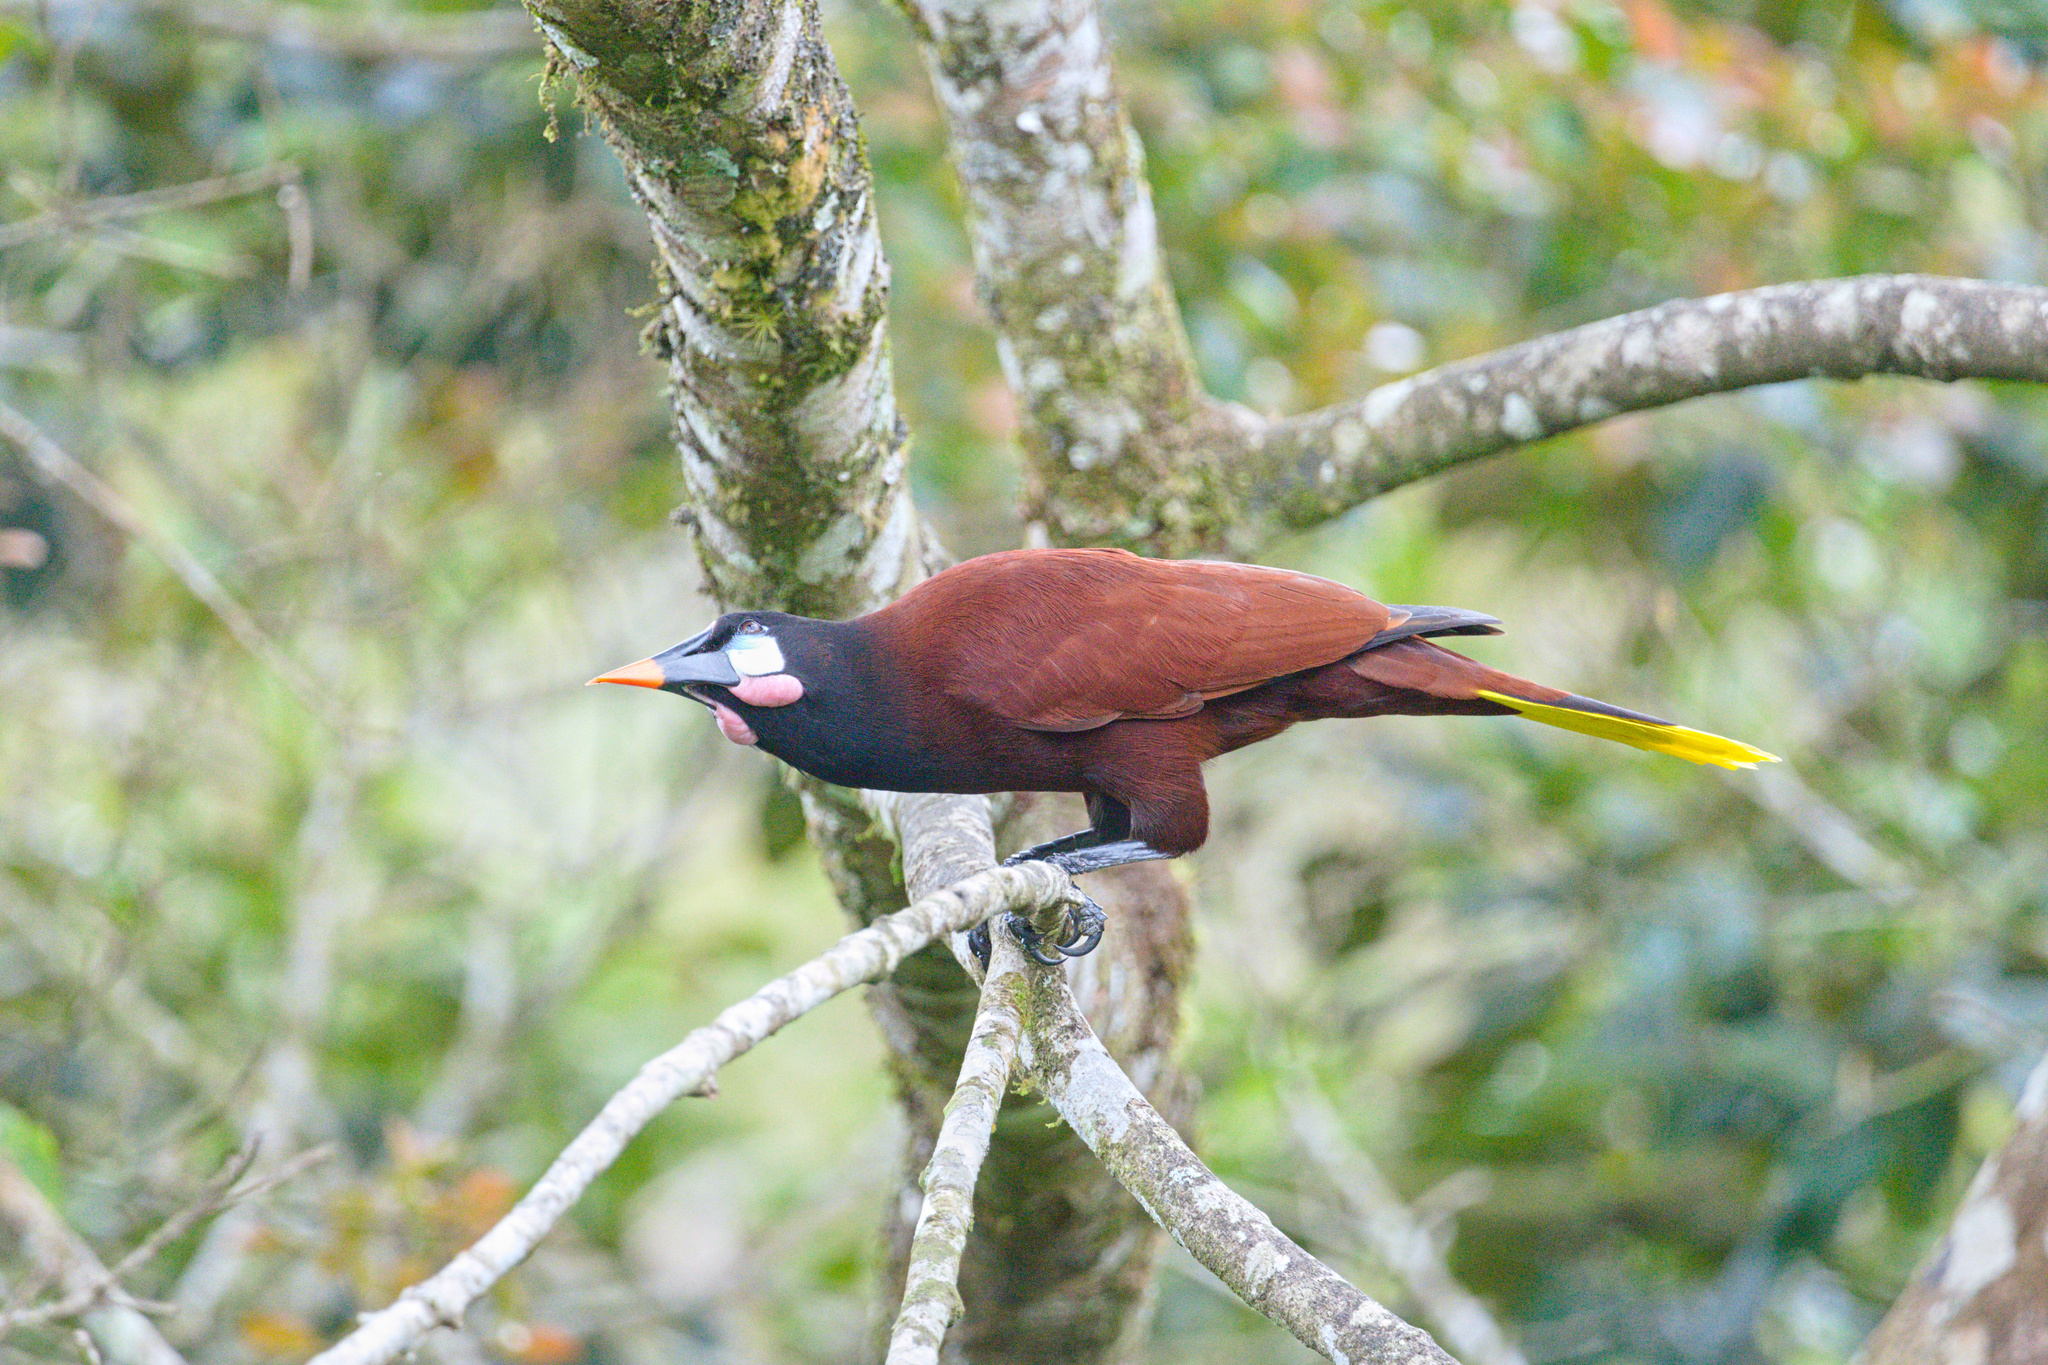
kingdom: Animalia
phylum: Chordata
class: Aves
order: Passeriformes
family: Icteridae
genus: Psarocolius
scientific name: Psarocolius montezuma
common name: Montezuma oropendola
